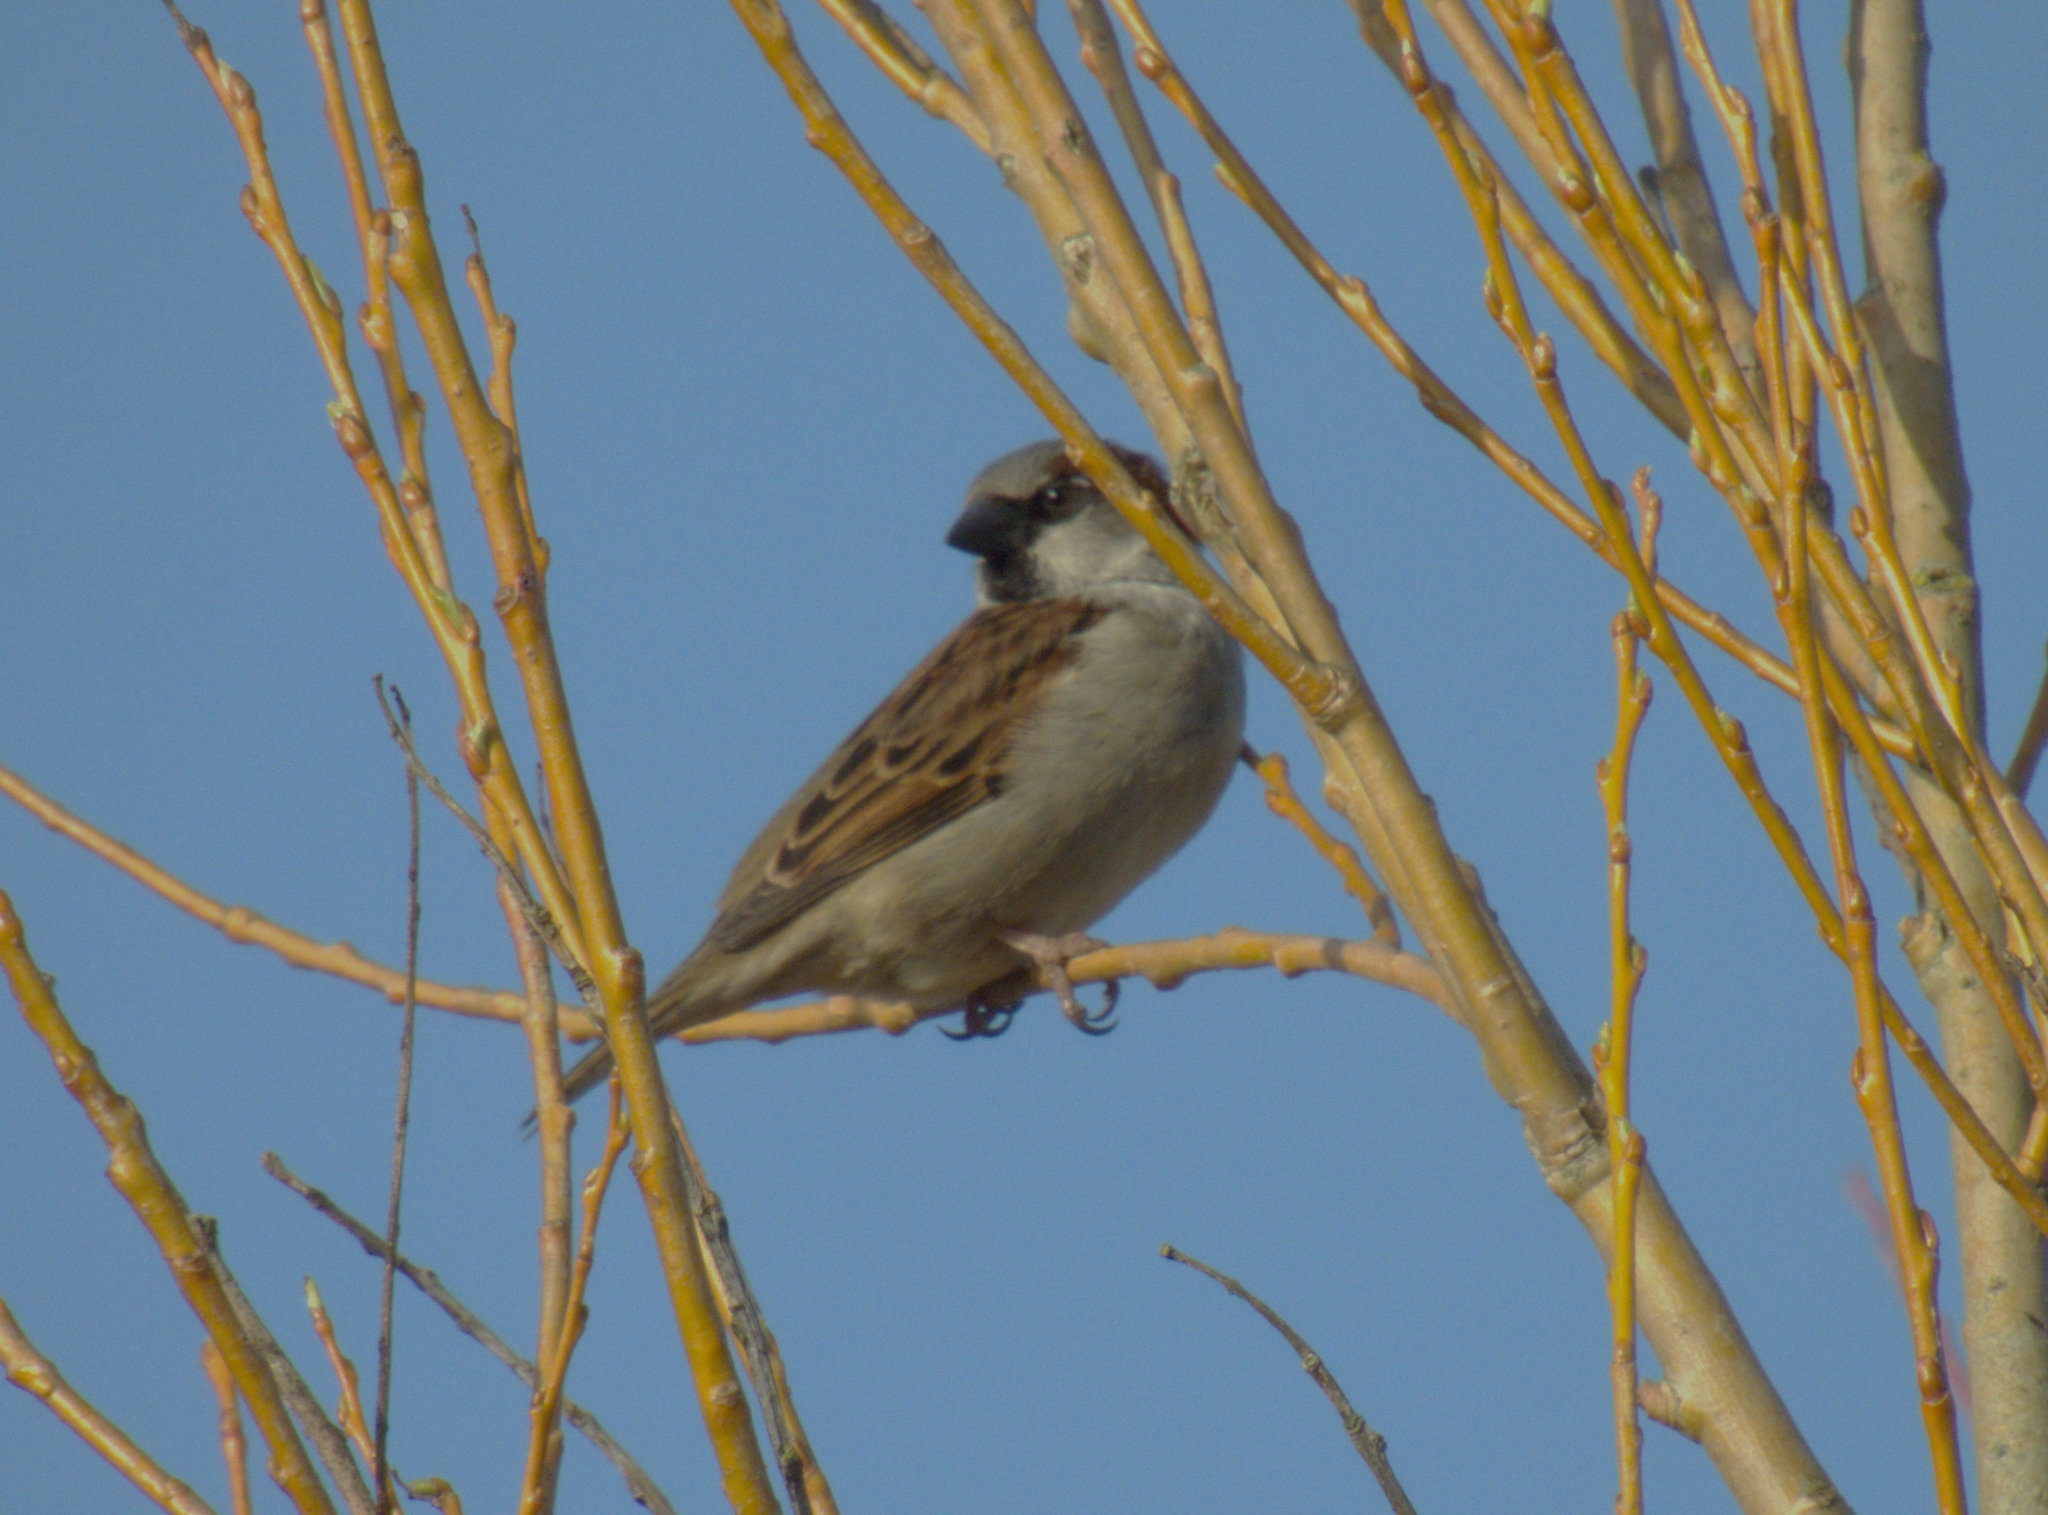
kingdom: Animalia
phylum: Chordata
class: Aves
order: Passeriformes
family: Passeridae
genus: Passer
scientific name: Passer domesticus
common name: House sparrow
